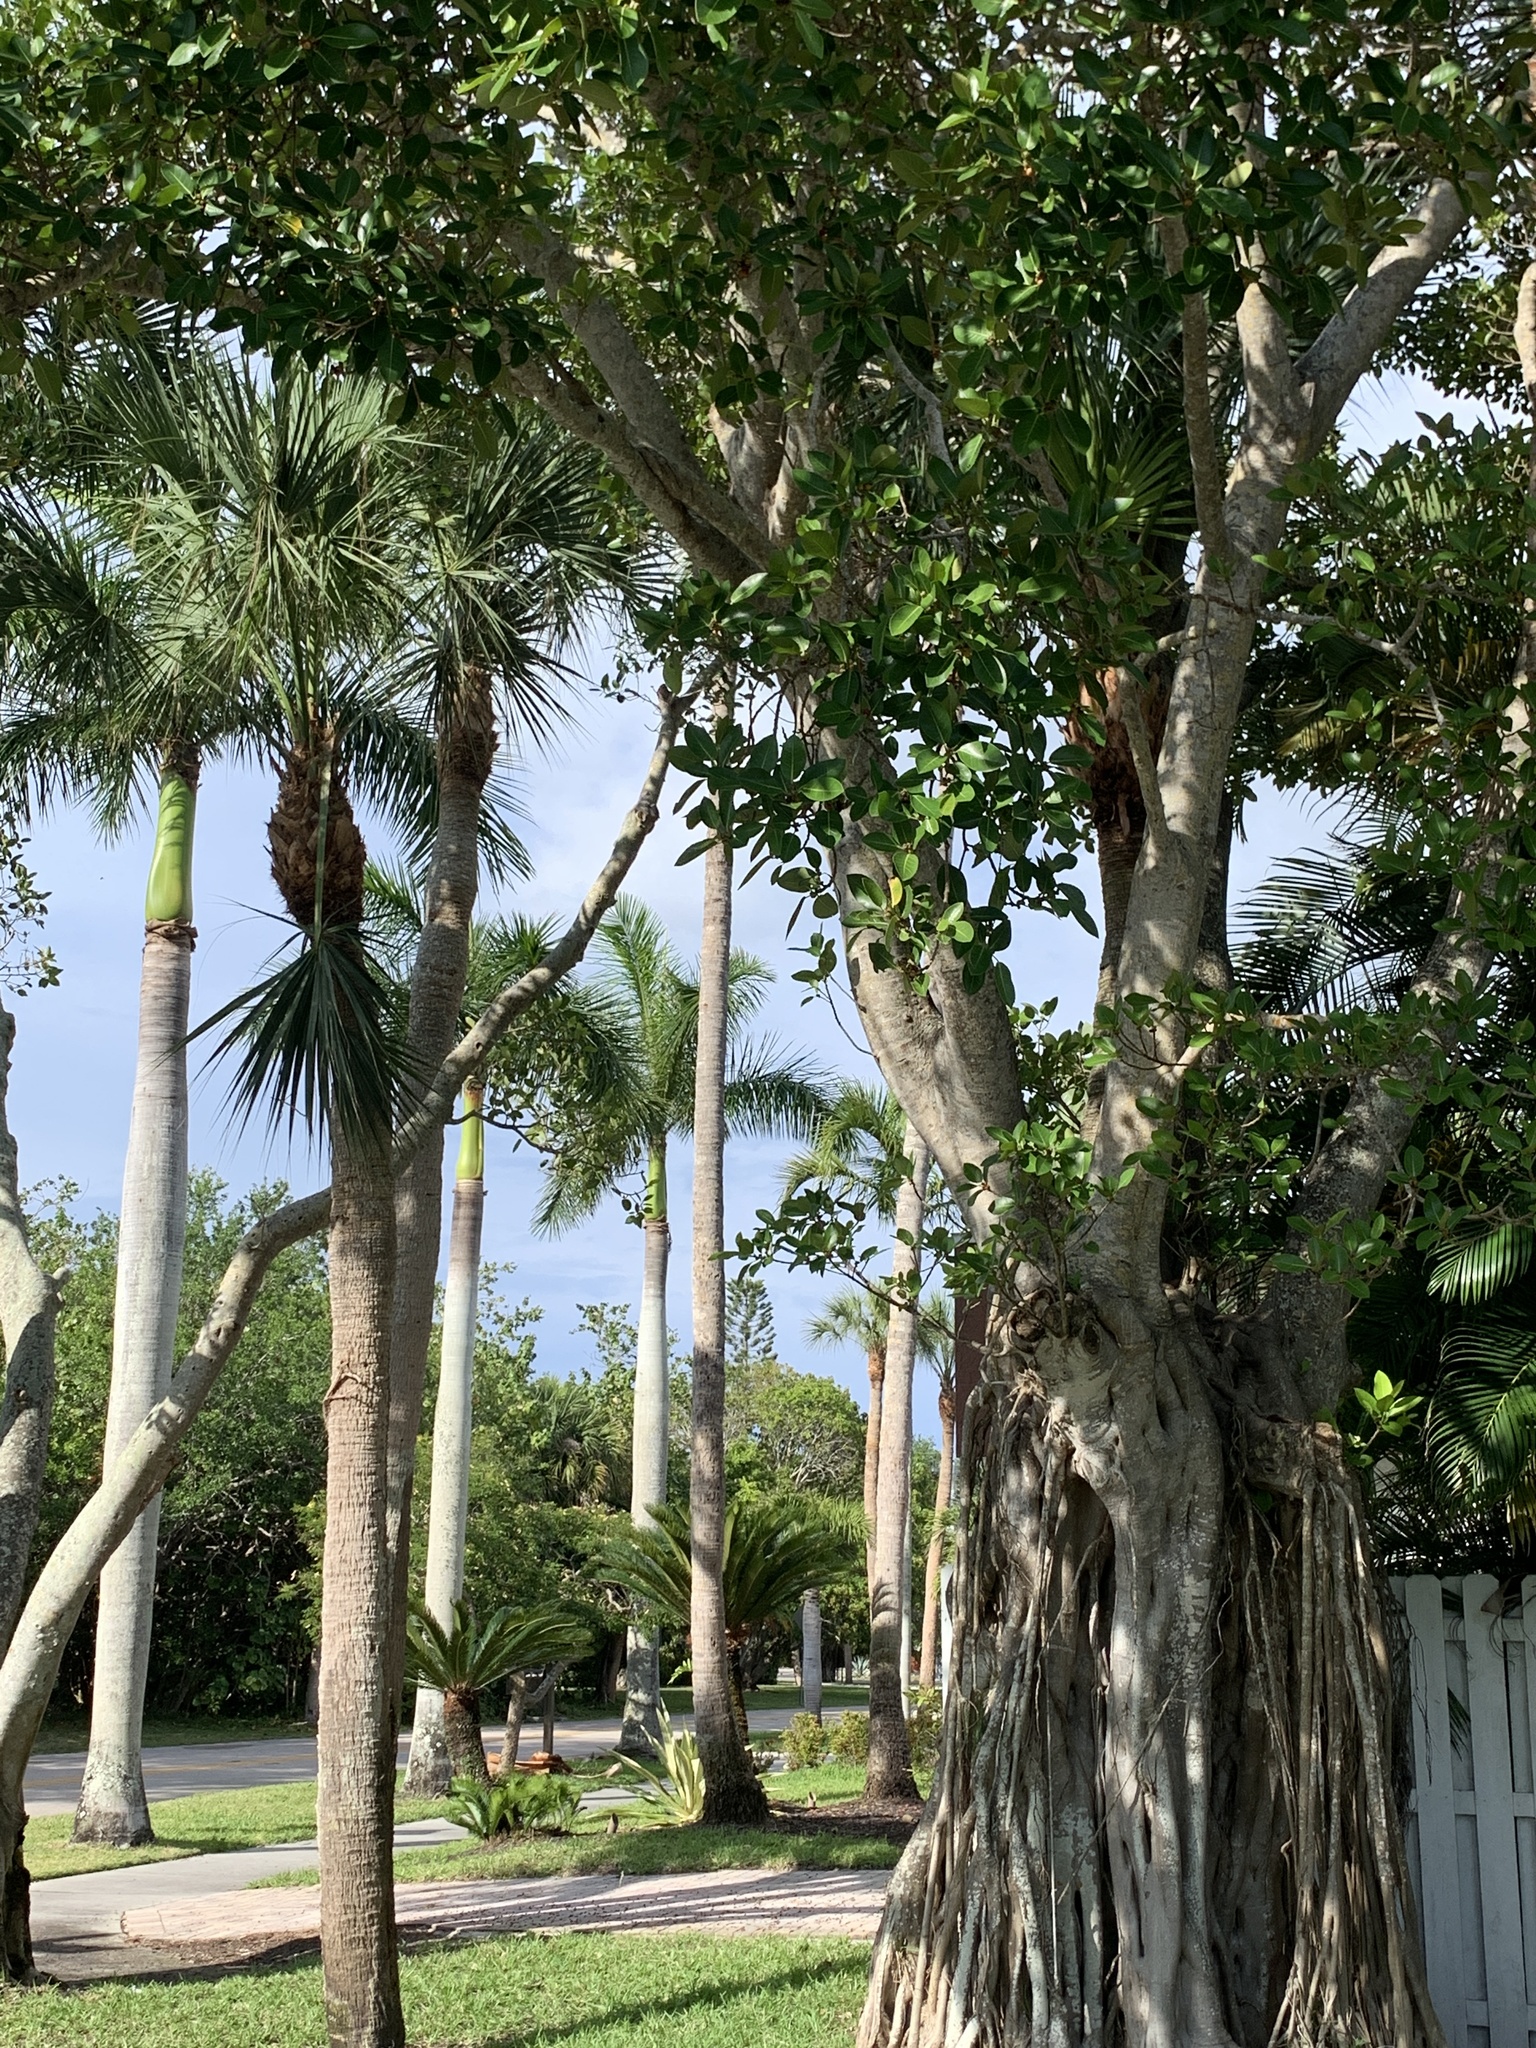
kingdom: Plantae
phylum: Tracheophyta
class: Magnoliopsida
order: Rosales
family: Moraceae
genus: Ficus
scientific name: Ficus aurea
